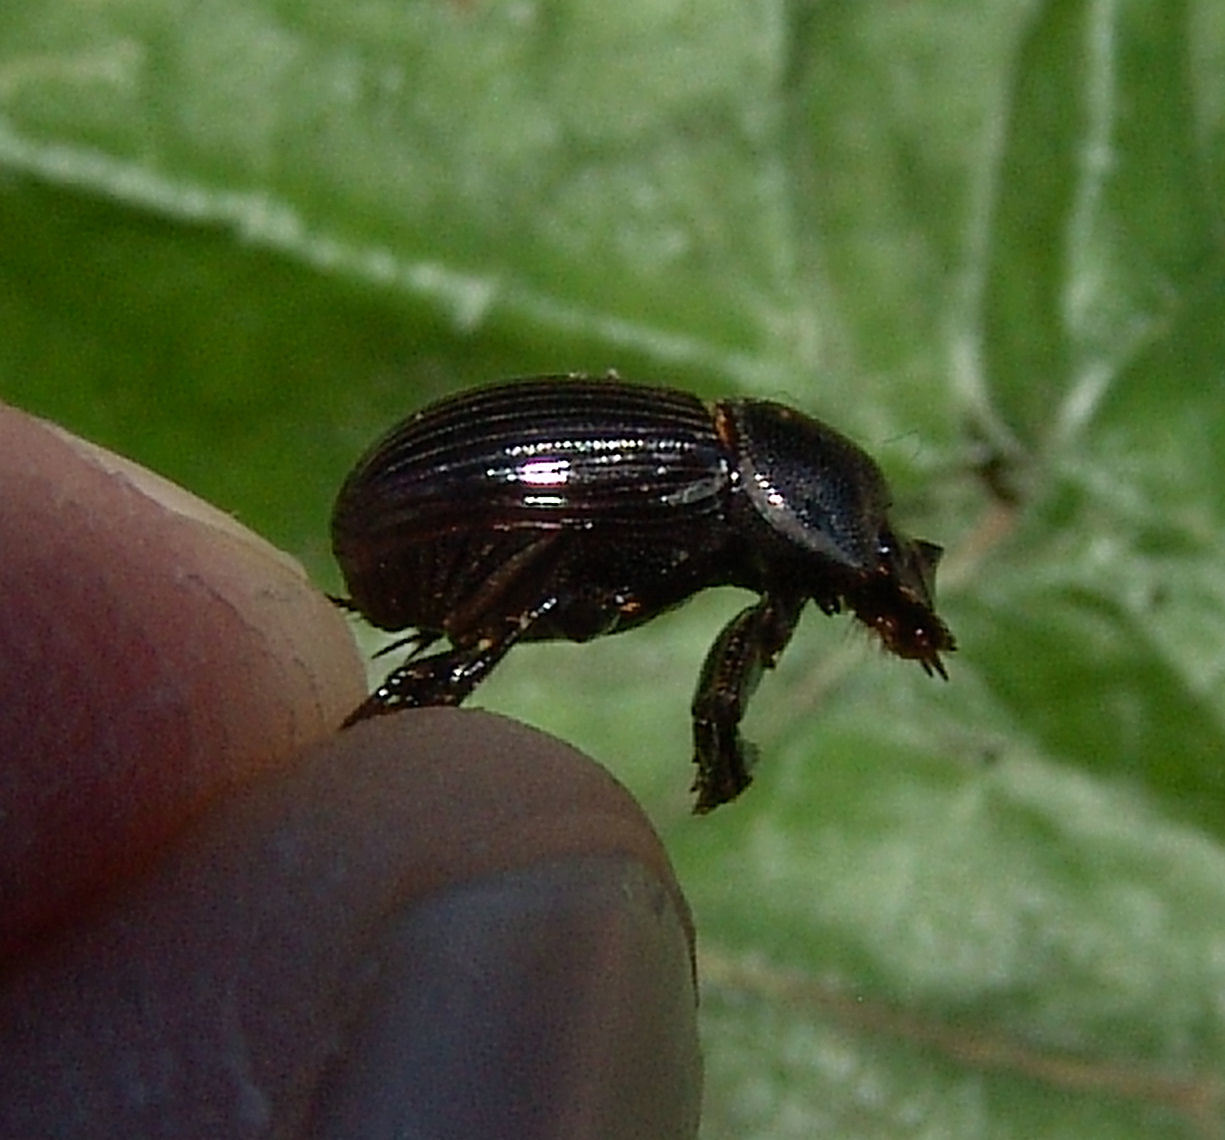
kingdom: Animalia
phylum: Arthropoda
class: Insecta
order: Coleoptera
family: Scarabaeidae
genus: Copris
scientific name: Copris minutus
